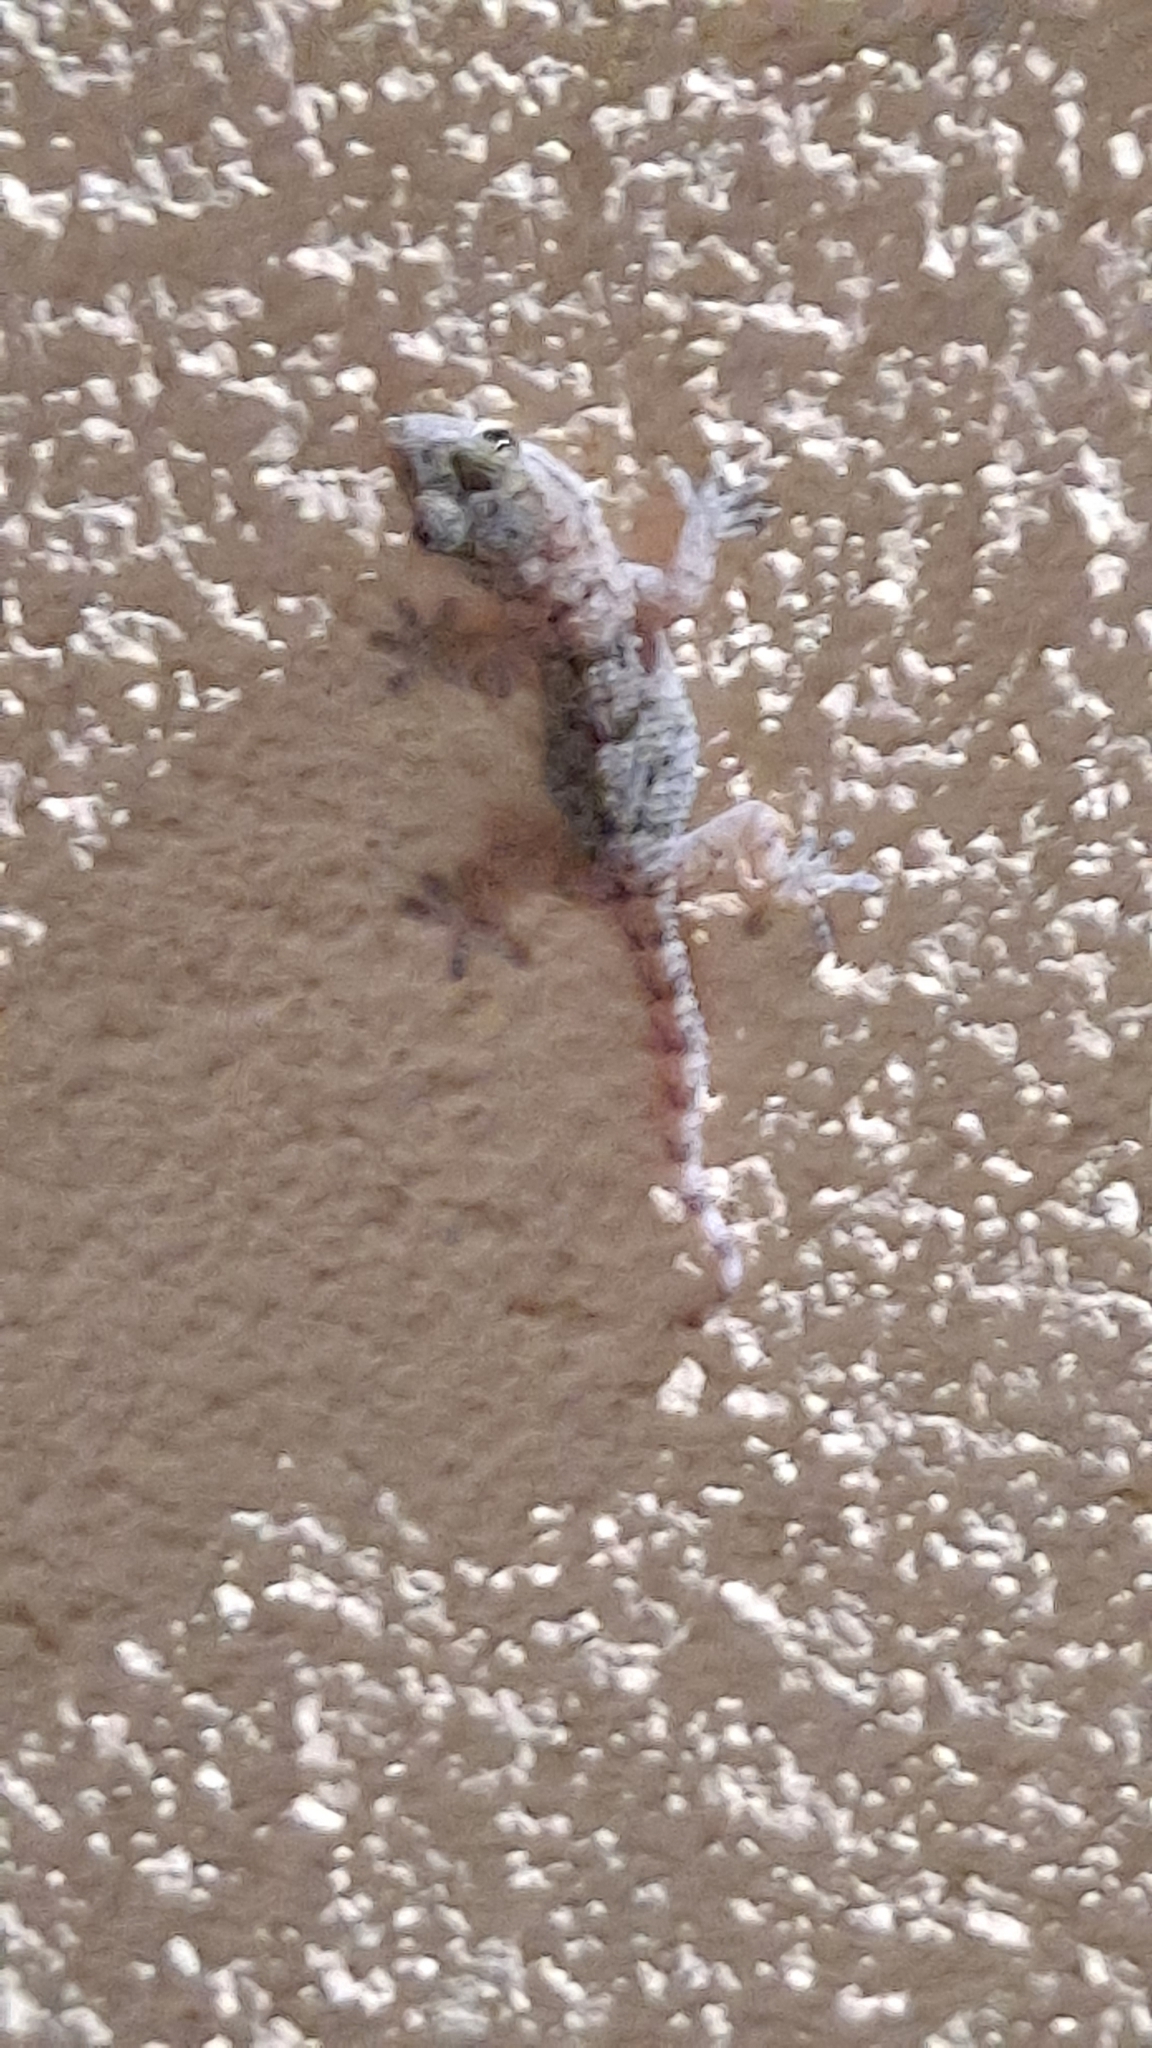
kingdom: Animalia
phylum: Chordata
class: Squamata
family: Phyllodactylidae
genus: Tarentola
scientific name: Tarentola mauritanica
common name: Moorish gecko
